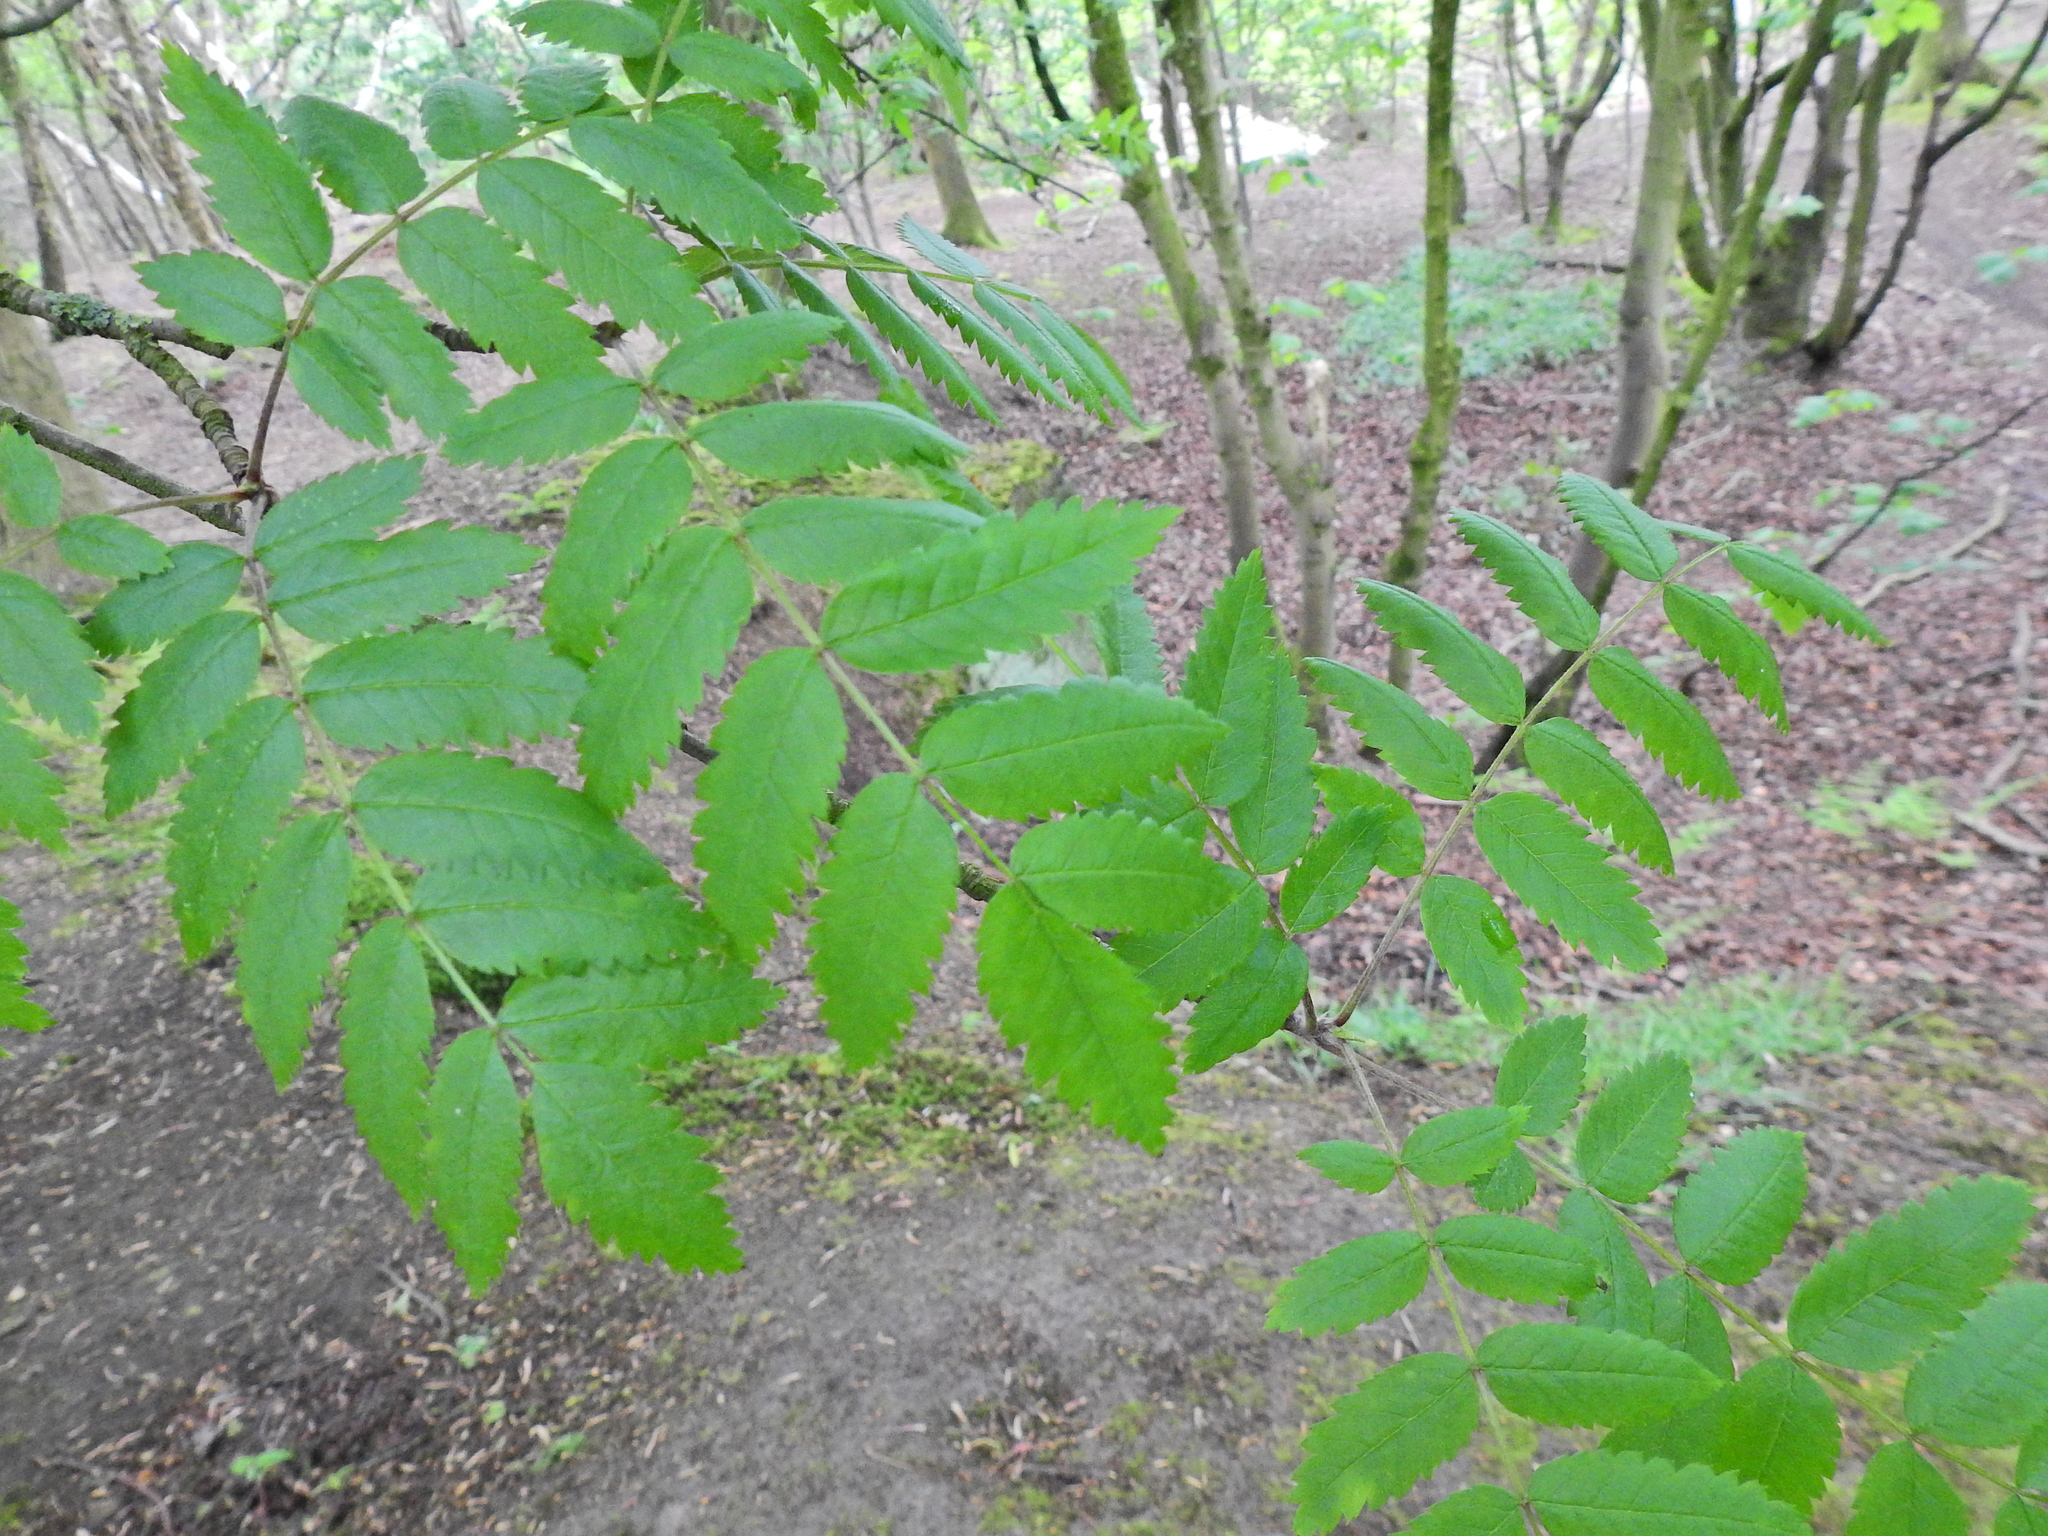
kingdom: Plantae
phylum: Tracheophyta
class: Magnoliopsida
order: Rosales
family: Rosaceae
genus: Sorbus
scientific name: Sorbus aucuparia
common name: Rowan
